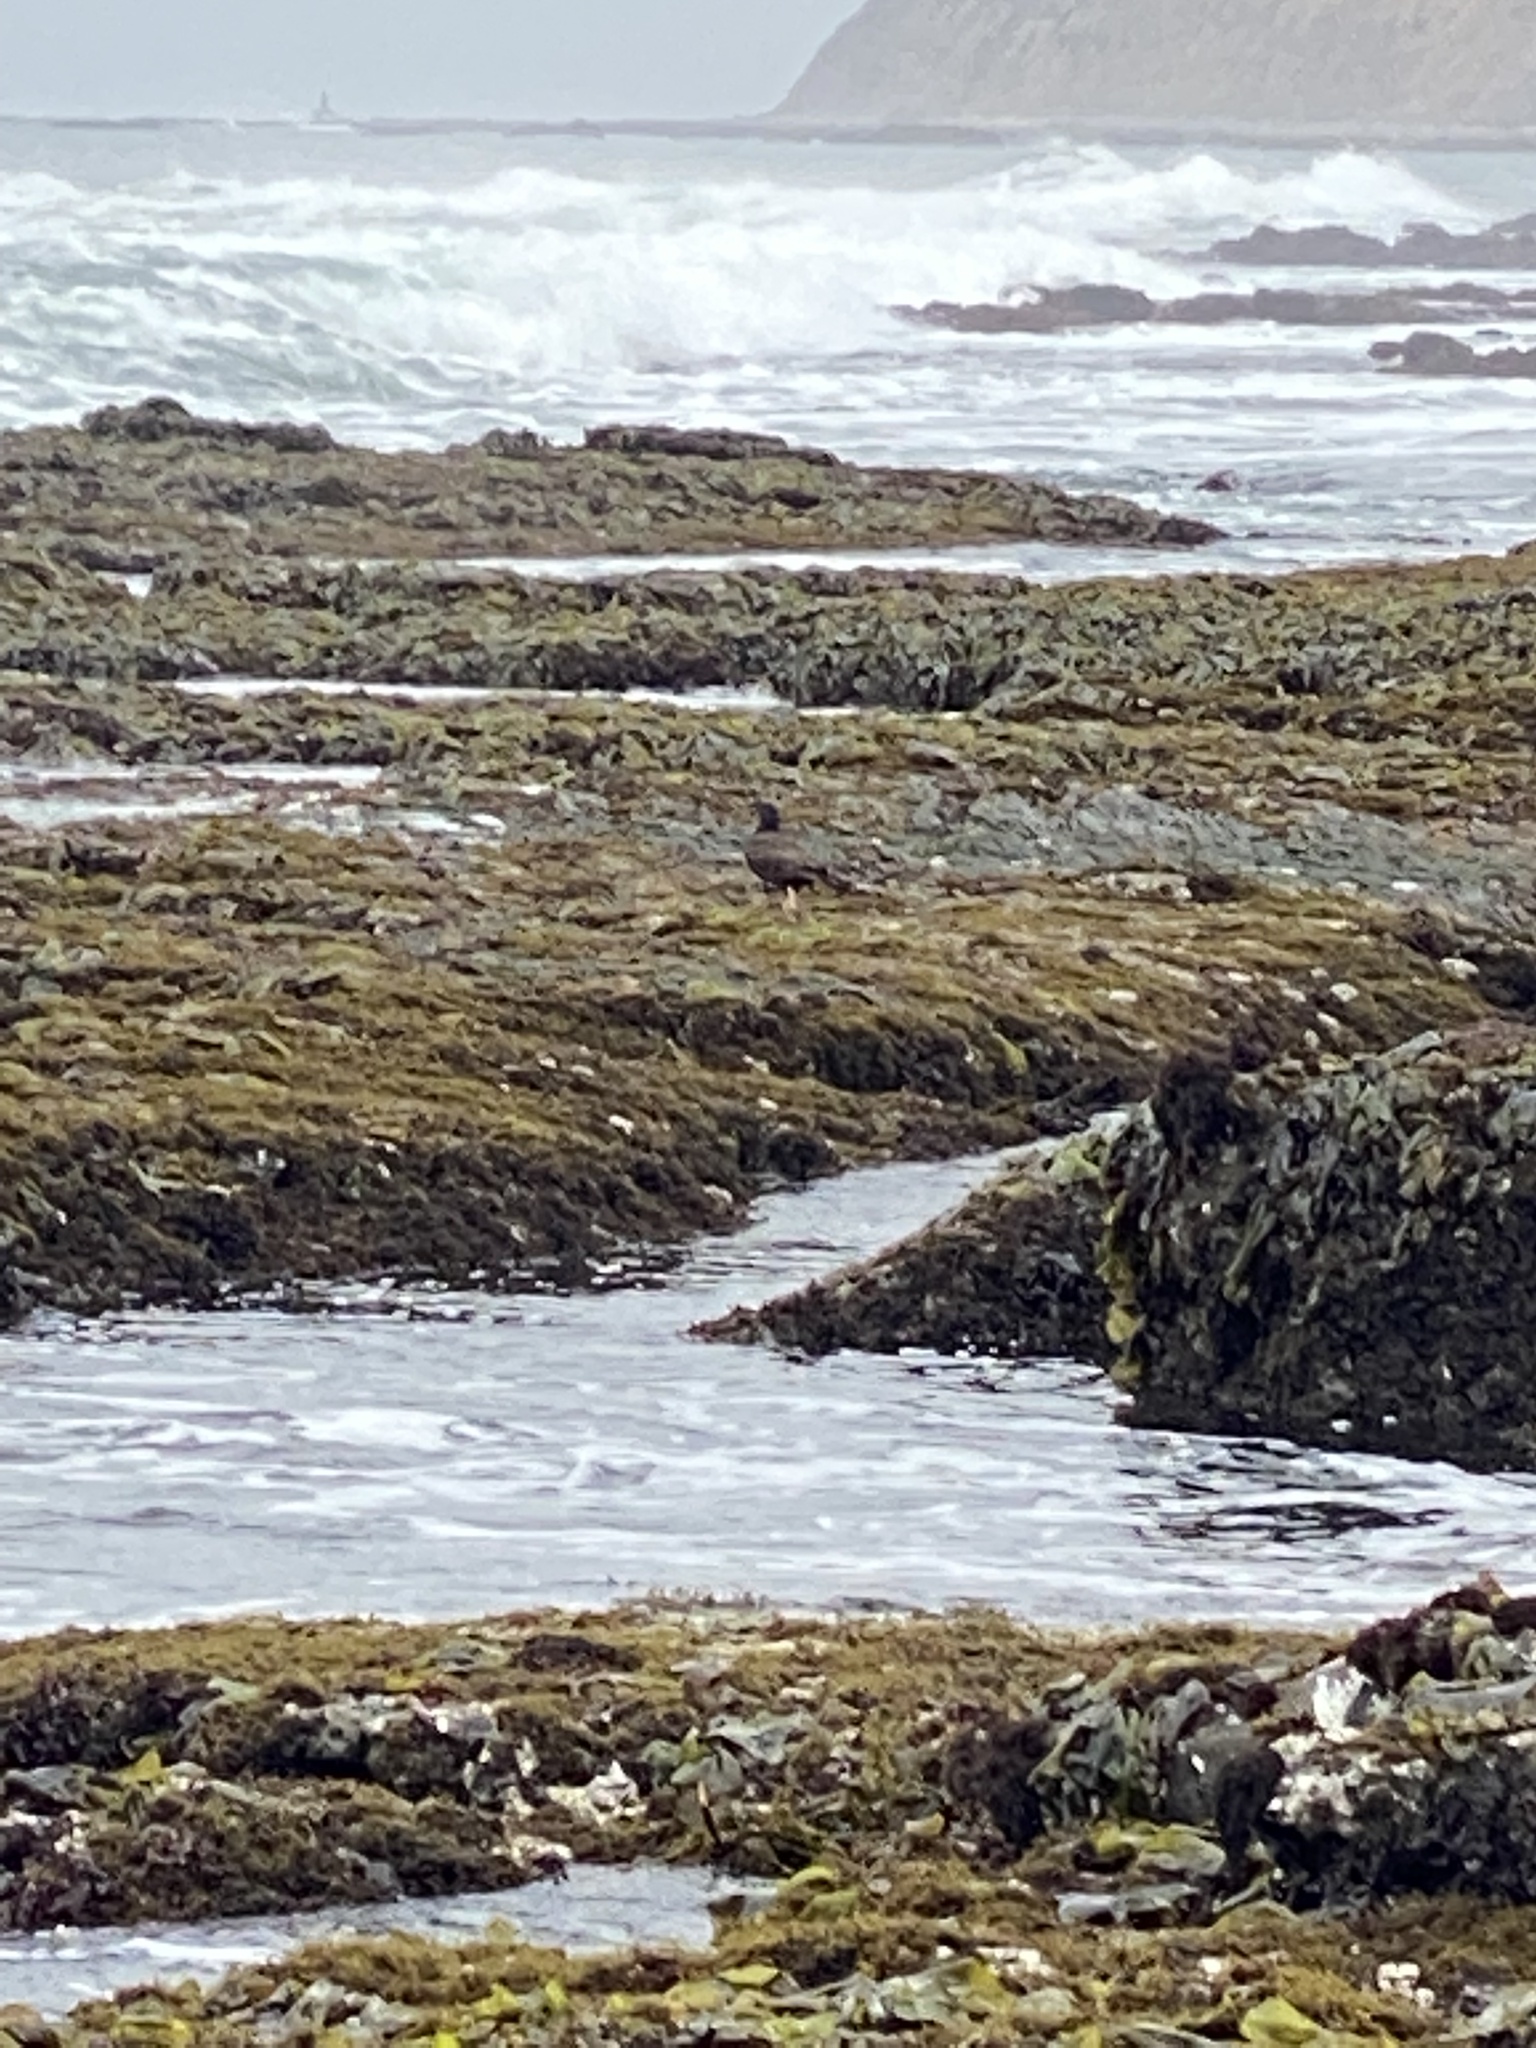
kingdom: Animalia
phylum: Chordata
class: Aves
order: Charadriiformes
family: Haematopodidae
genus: Haematopus
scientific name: Haematopus bachmani
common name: Black oystercatcher
